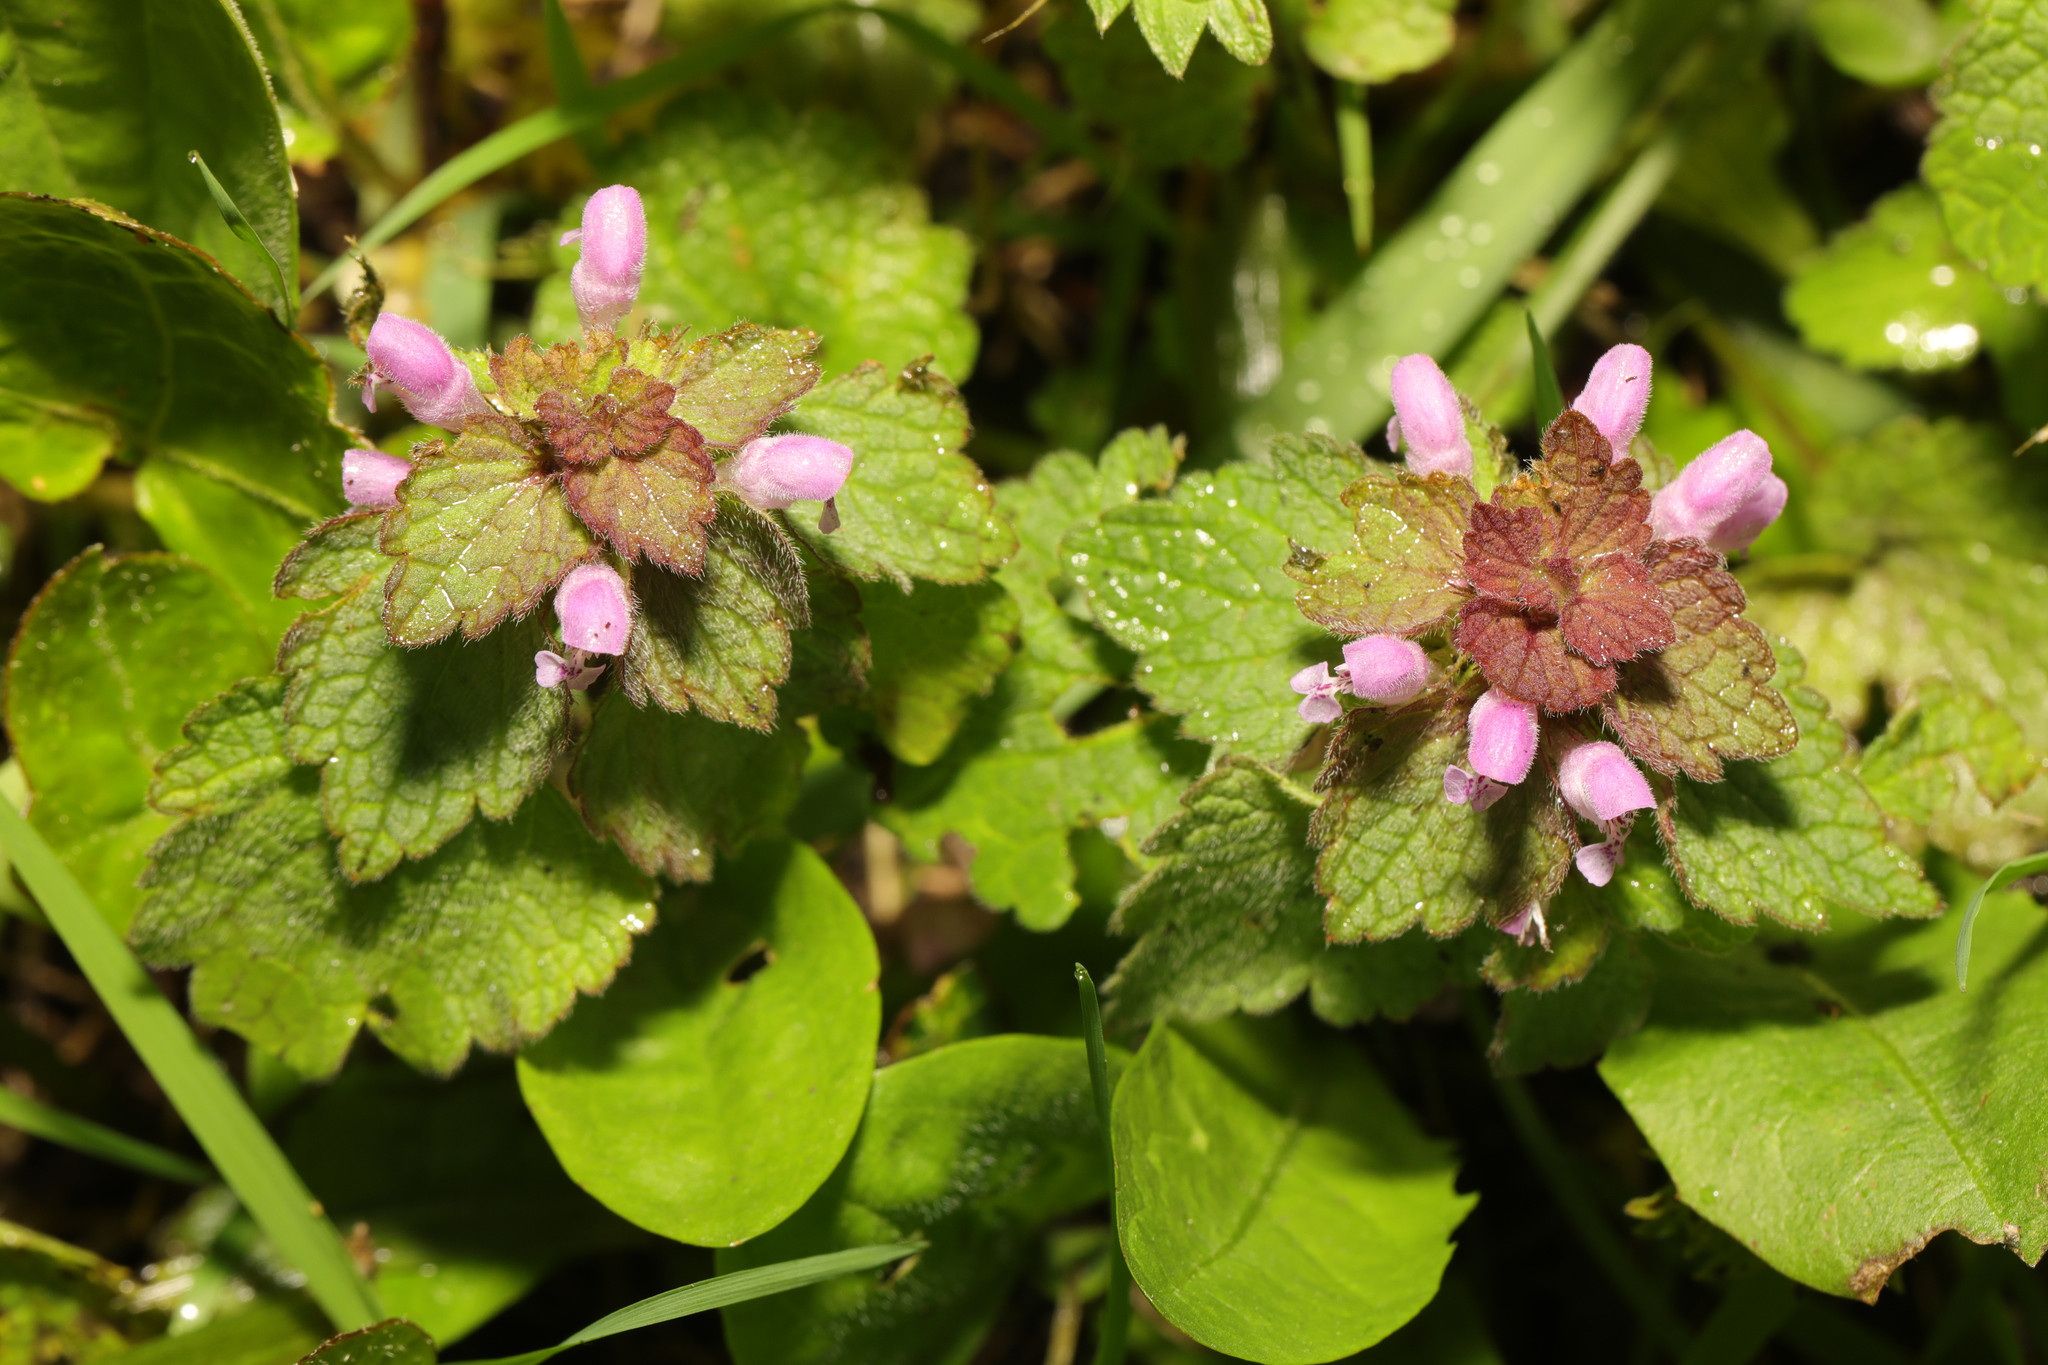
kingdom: Plantae
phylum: Tracheophyta
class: Magnoliopsida
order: Lamiales
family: Lamiaceae
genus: Lamium
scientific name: Lamium purpureum
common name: Red dead-nettle
